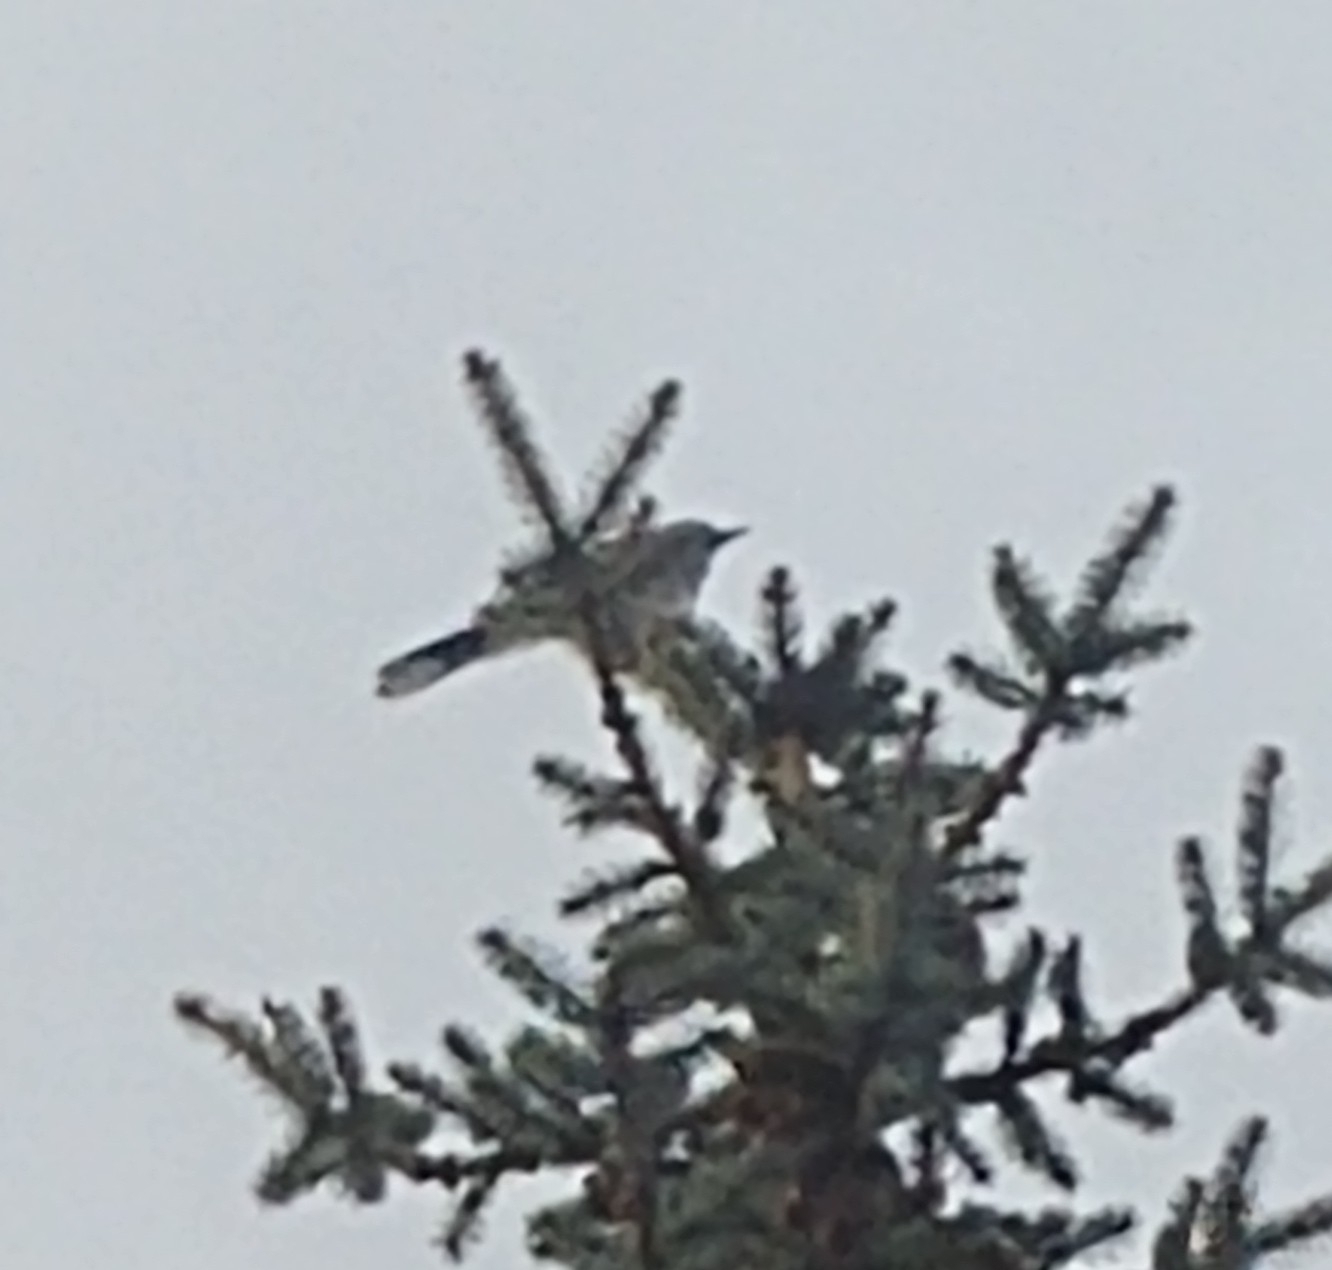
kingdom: Animalia
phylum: Chordata
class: Aves
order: Passeriformes
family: Corvidae
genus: Cyanocitta
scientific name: Cyanocitta cristata
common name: Blue jay
